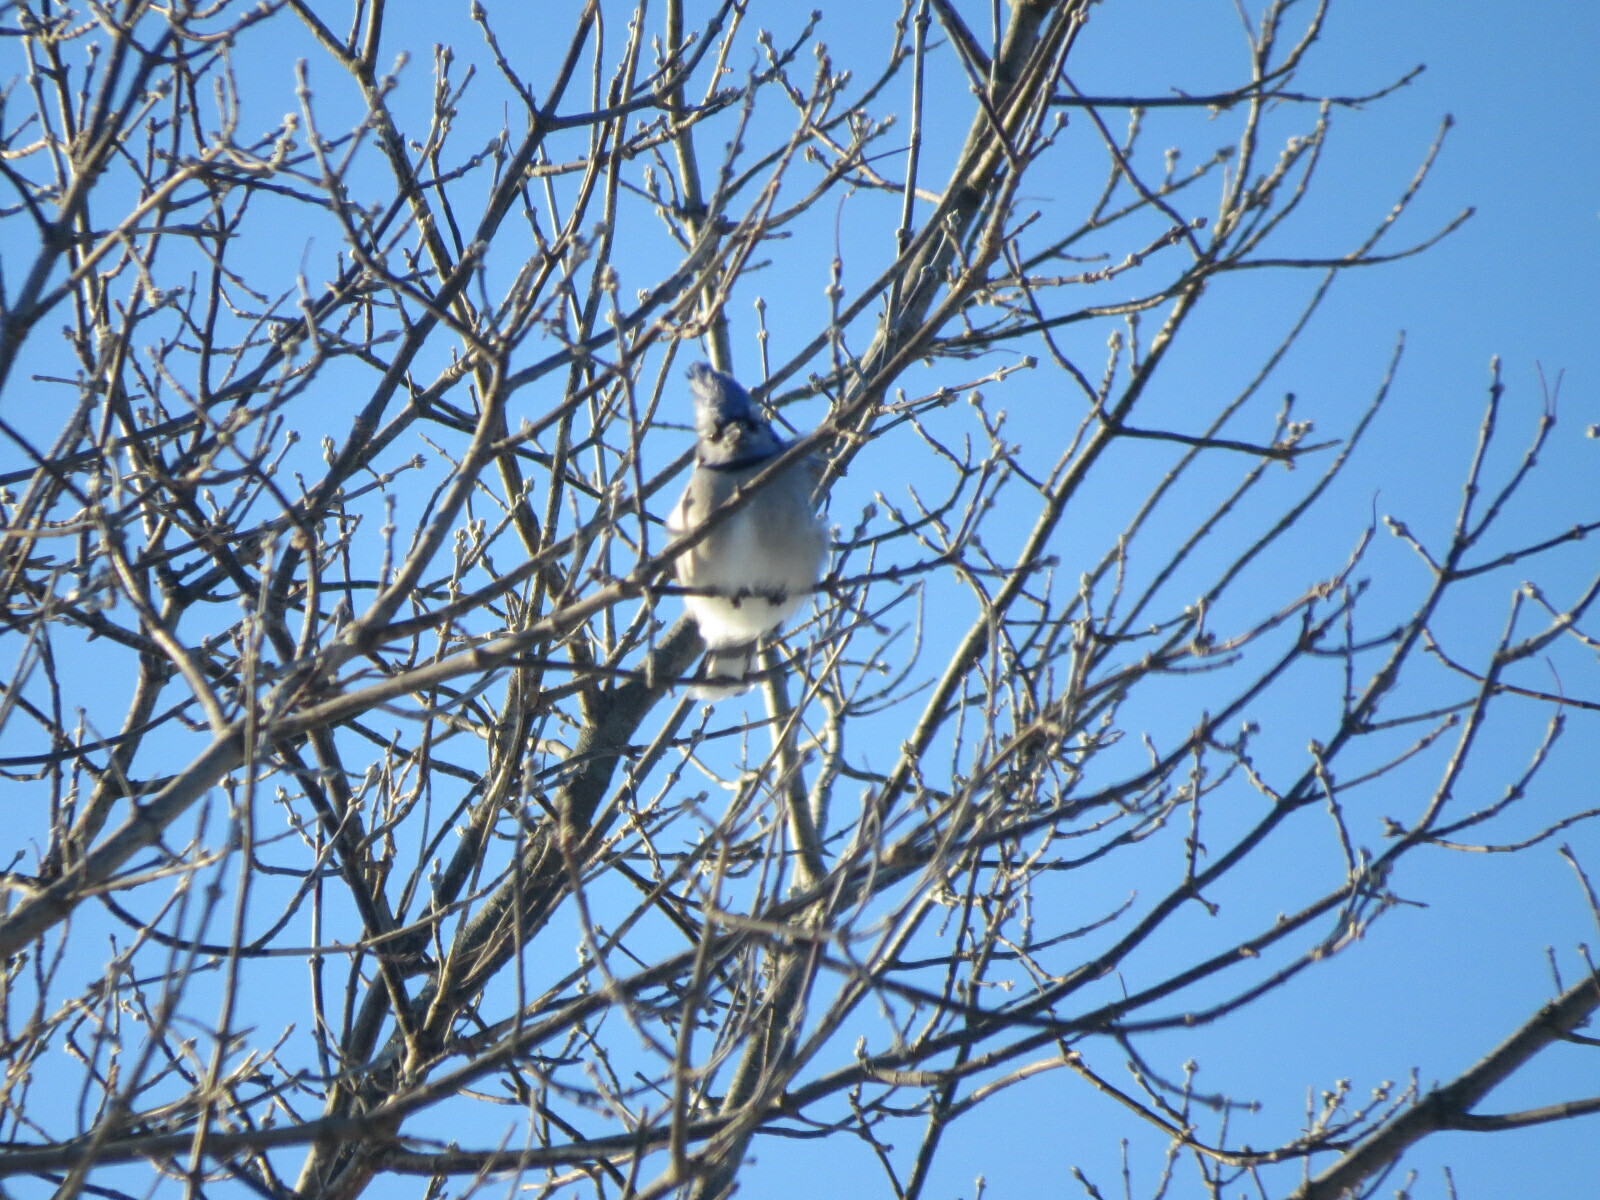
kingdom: Animalia
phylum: Chordata
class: Aves
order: Passeriformes
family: Corvidae
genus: Cyanocitta
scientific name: Cyanocitta cristata
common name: Blue jay
